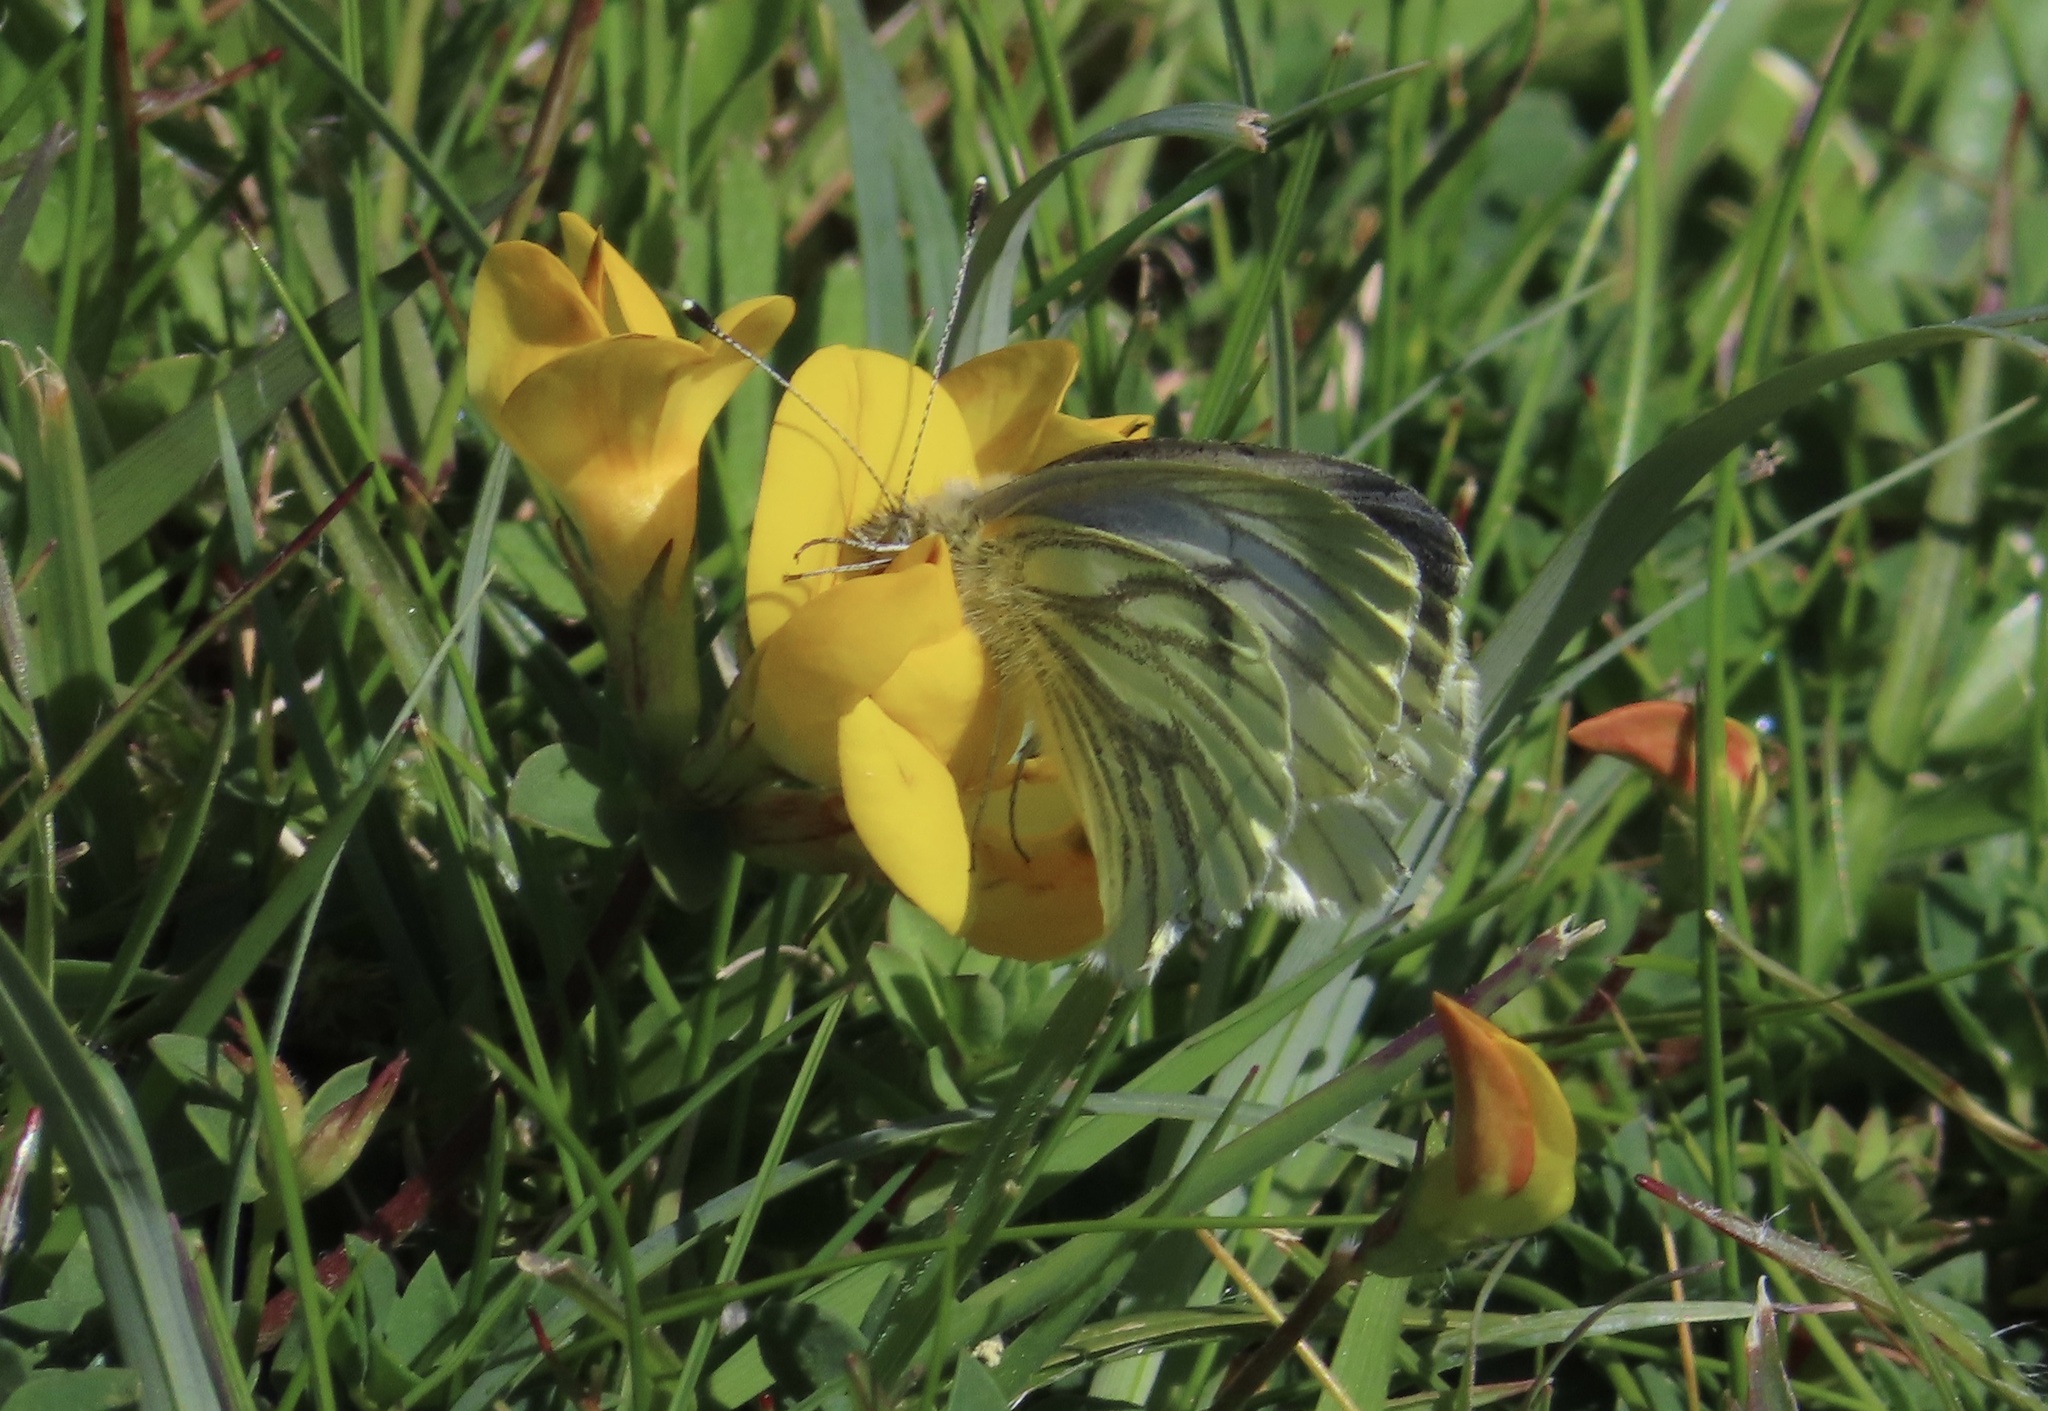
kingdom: Animalia
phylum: Arthropoda
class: Insecta
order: Lepidoptera
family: Pieridae
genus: Pieris
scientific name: Pieris napi
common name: Green-veined white
